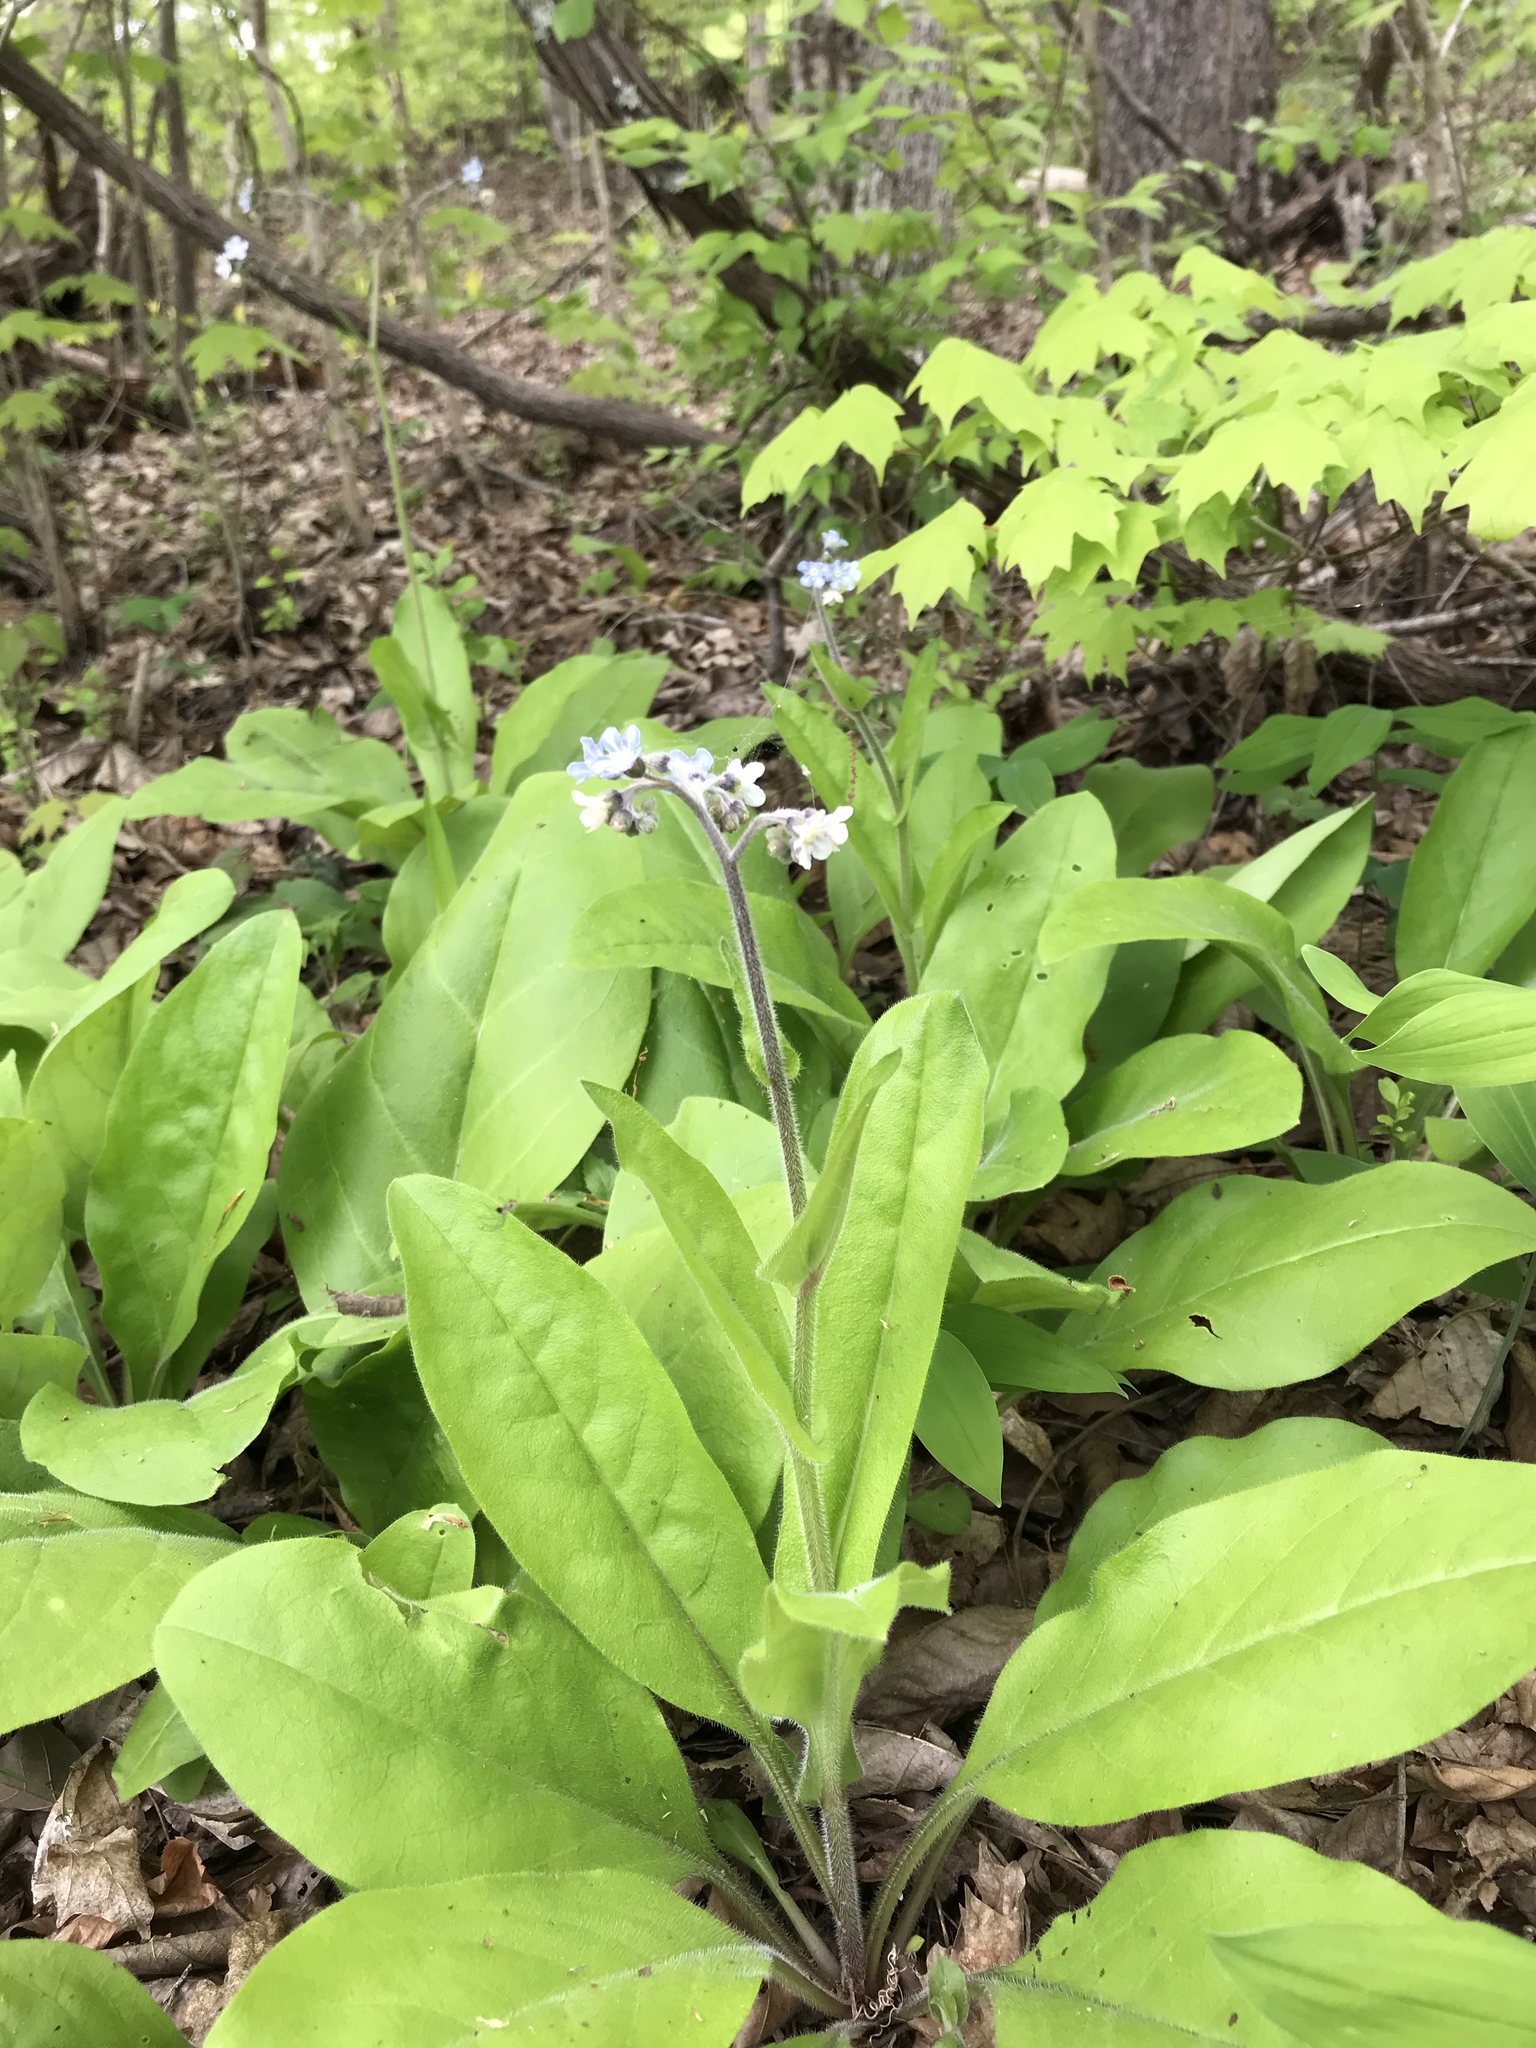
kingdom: Plantae
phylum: Tracheophyta
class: Magnoliopsida
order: Boraginales
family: Boraginaceae
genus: Andersonglossum
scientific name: Andersonglossum virginianum
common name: Wild comfrey
